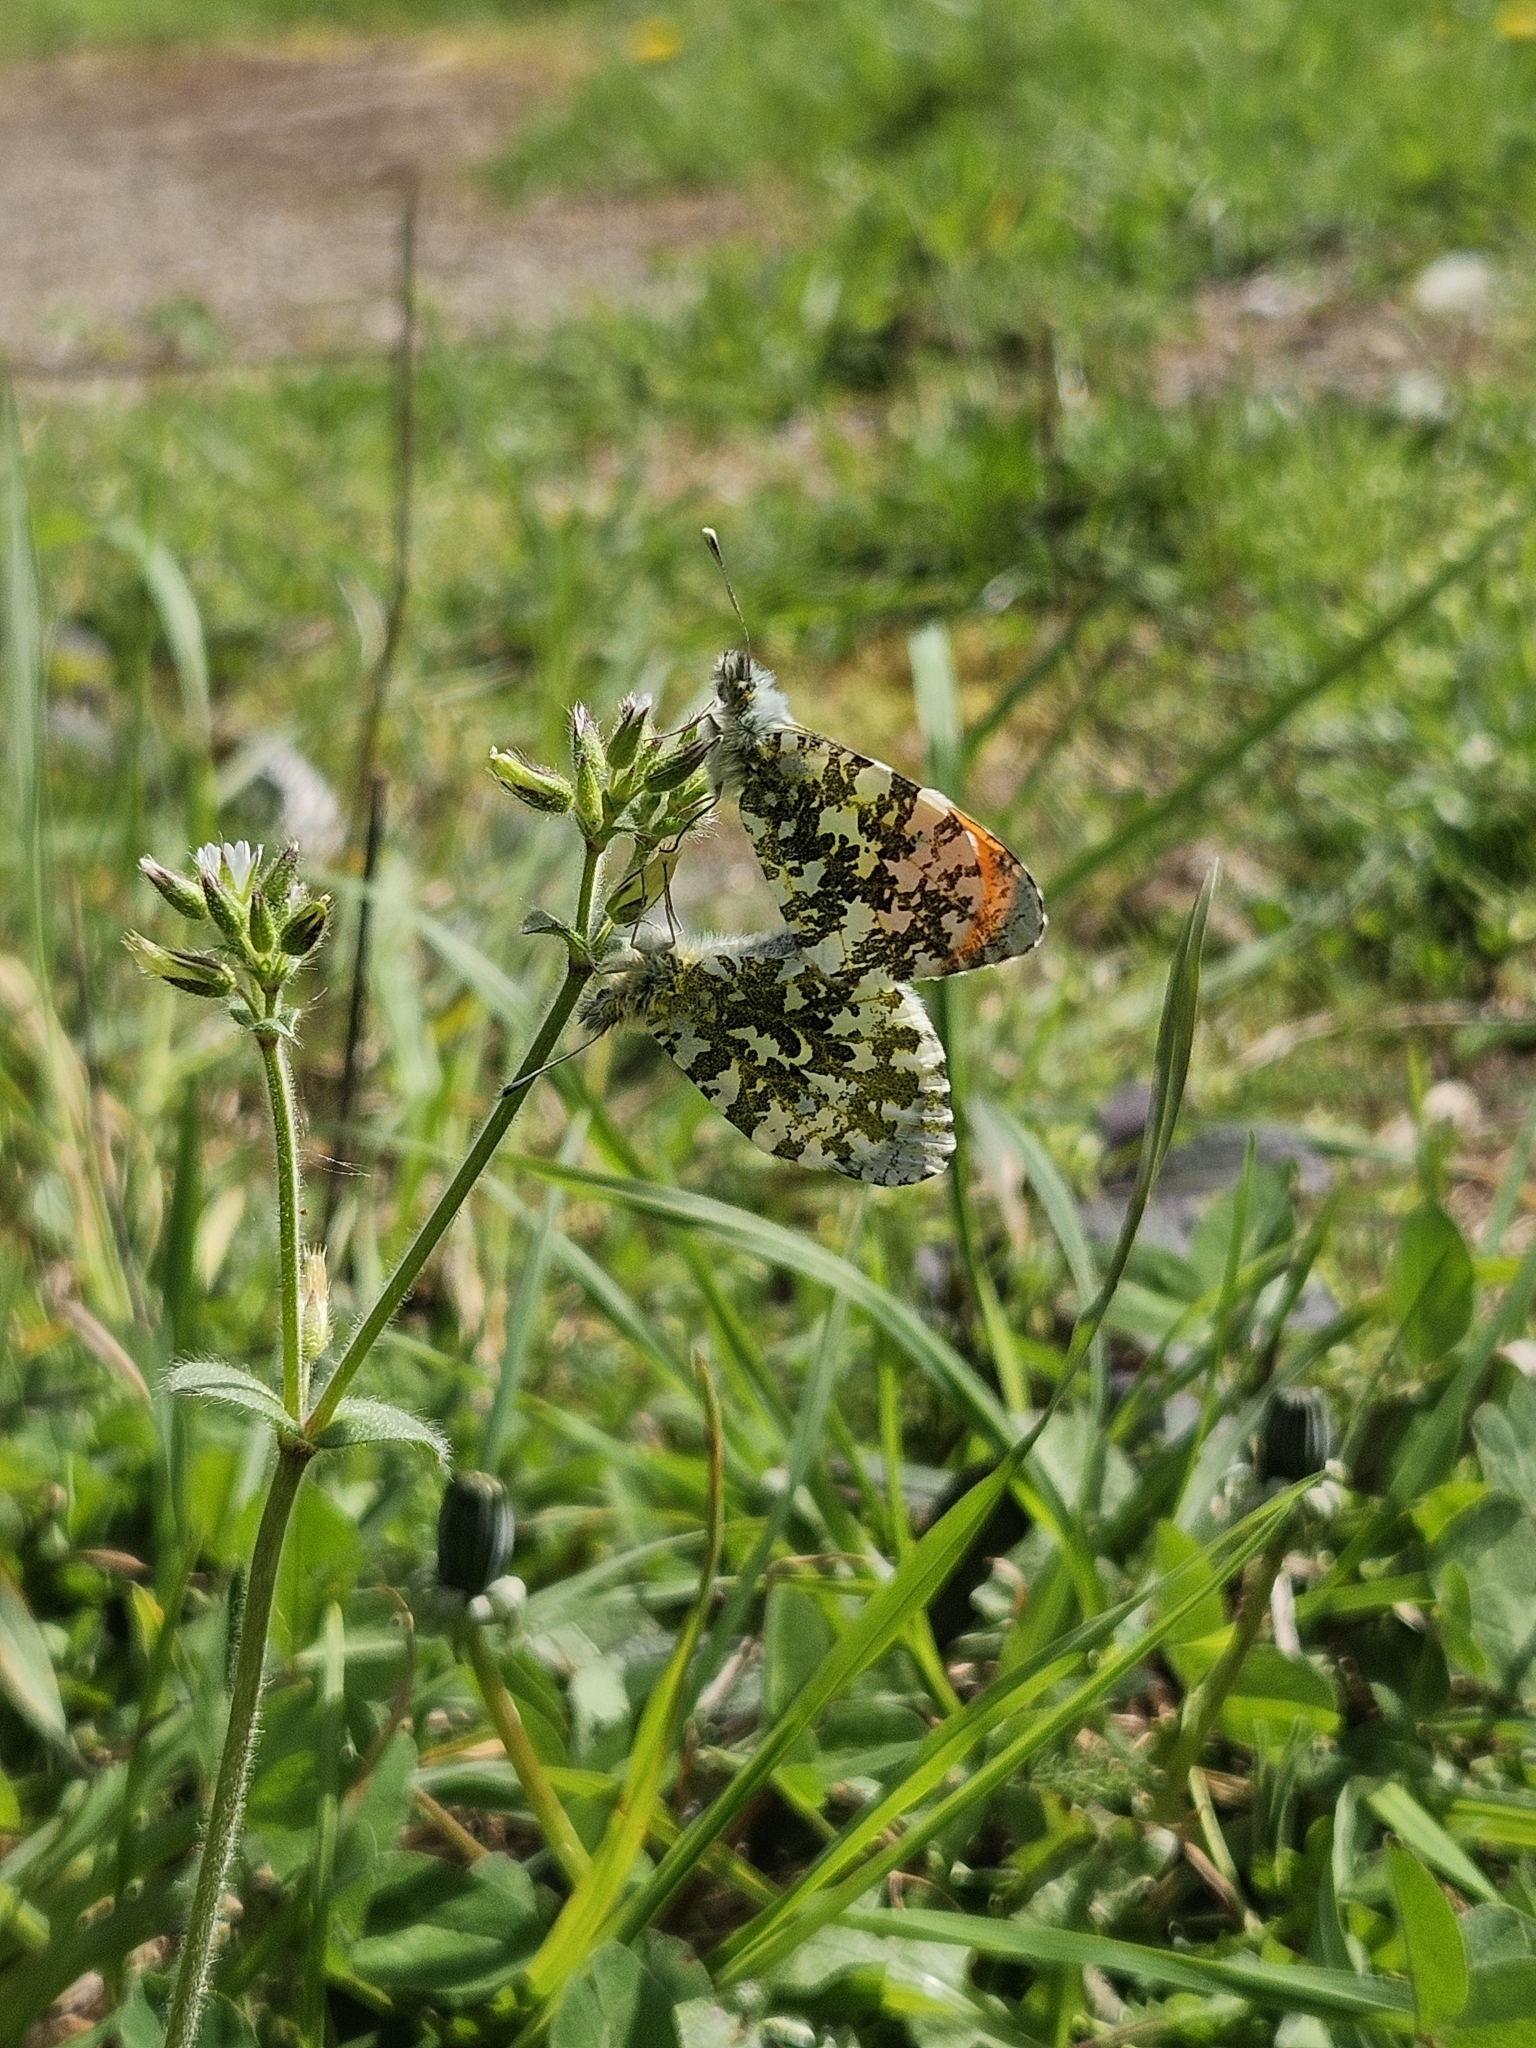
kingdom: Animalia
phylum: Arthropoda
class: Insecta
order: Lepidoptera
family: Pieridae
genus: Anthocharis
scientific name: Anthocharis cardamines
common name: Orange-tip
